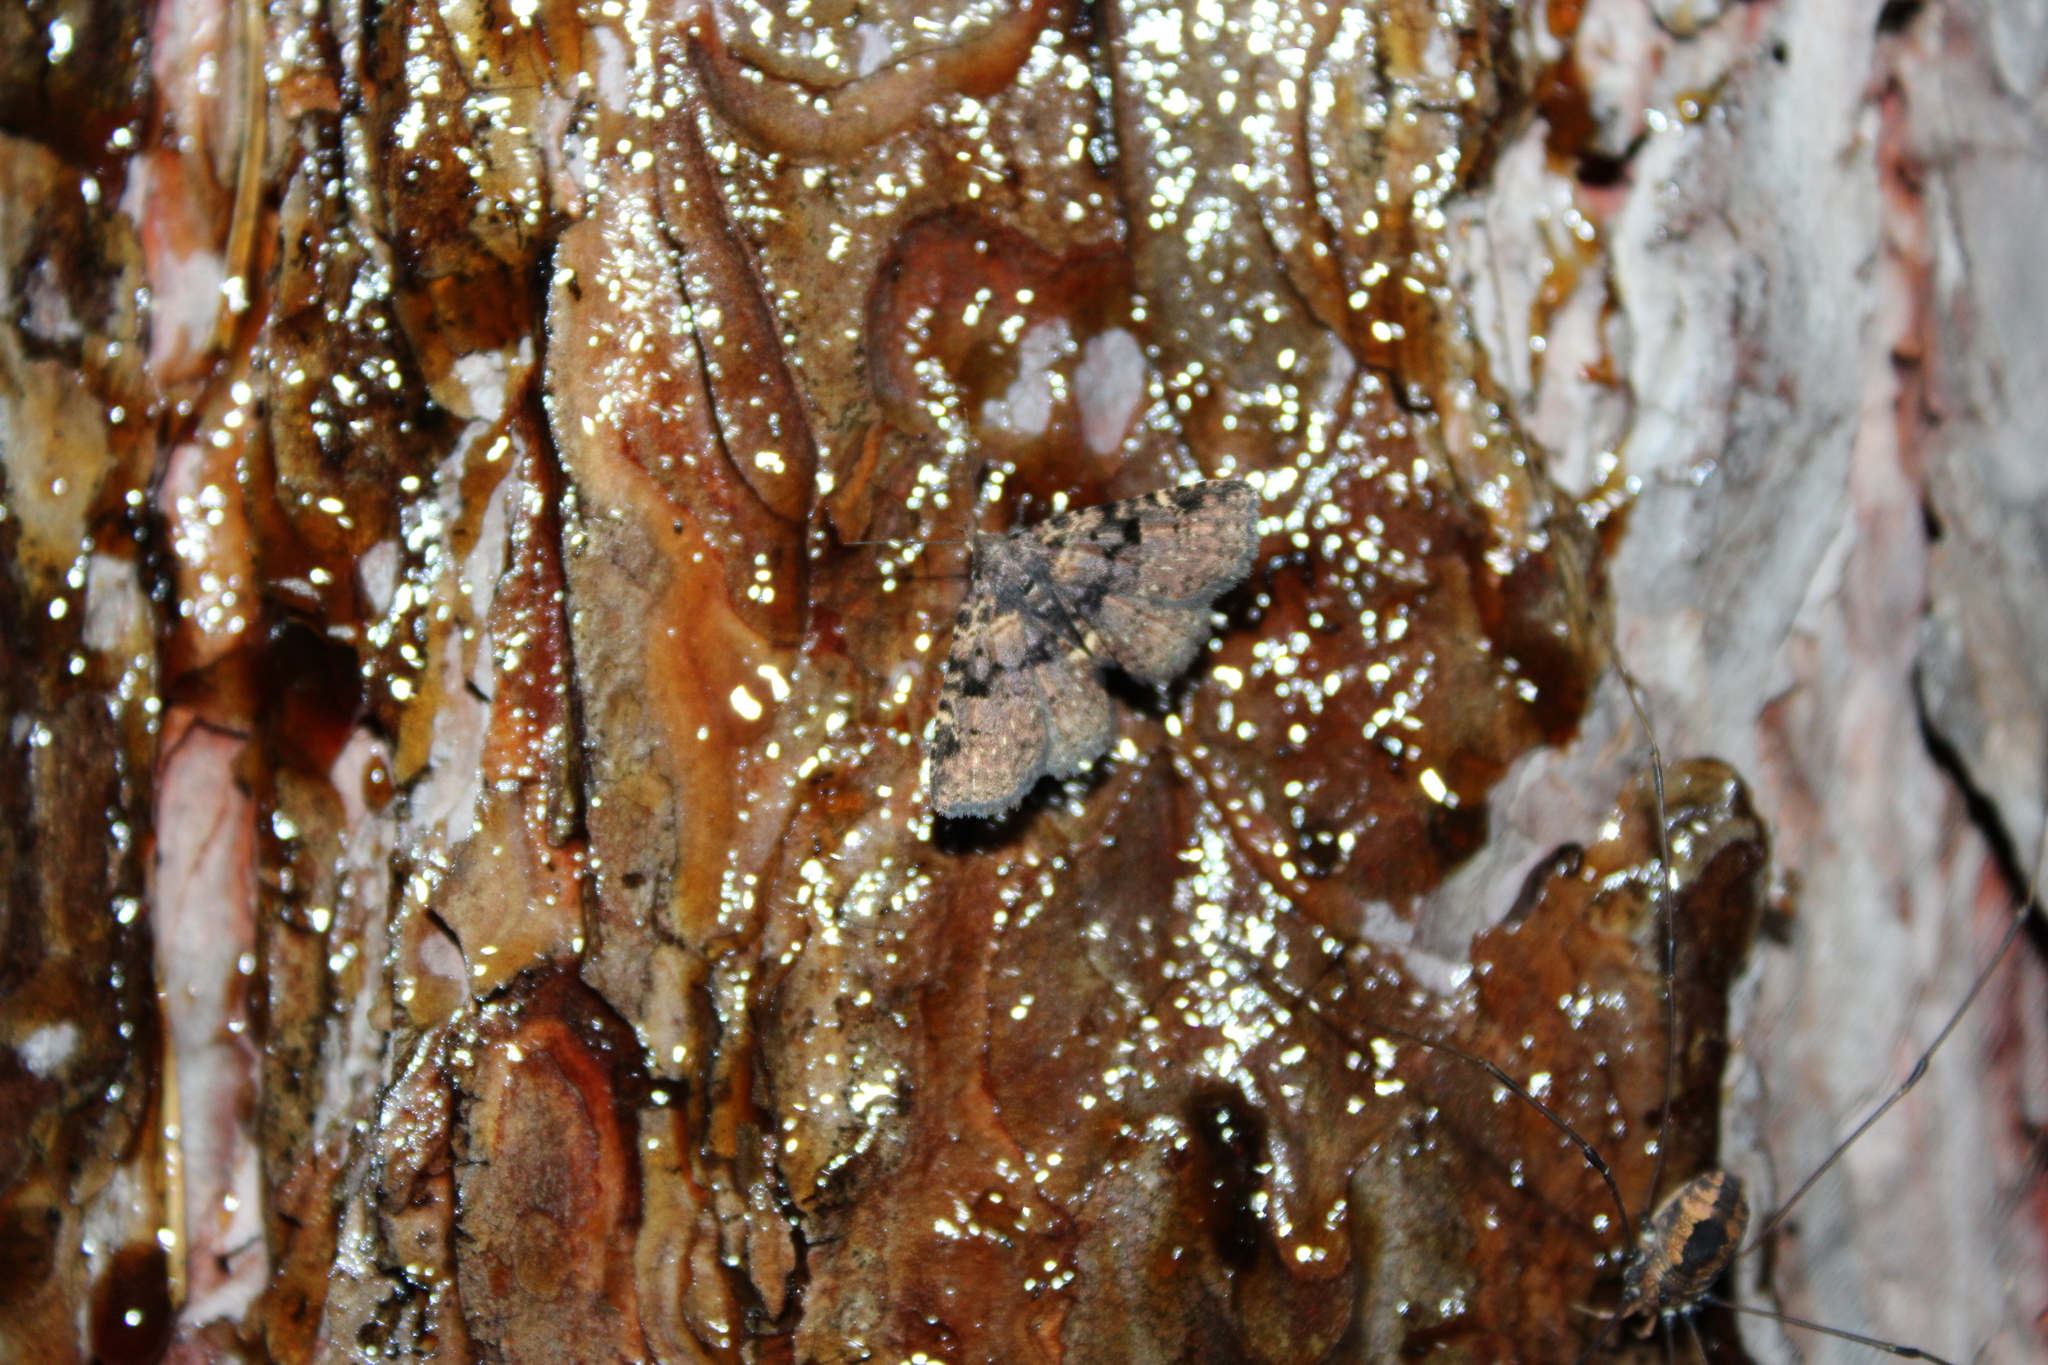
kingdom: Animalia
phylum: Arthropoda
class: Insecta
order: Lepidoptera
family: Erebidae
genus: Metalectra
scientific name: Metalectra quadrisignata
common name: Four-spotted fungus moth
